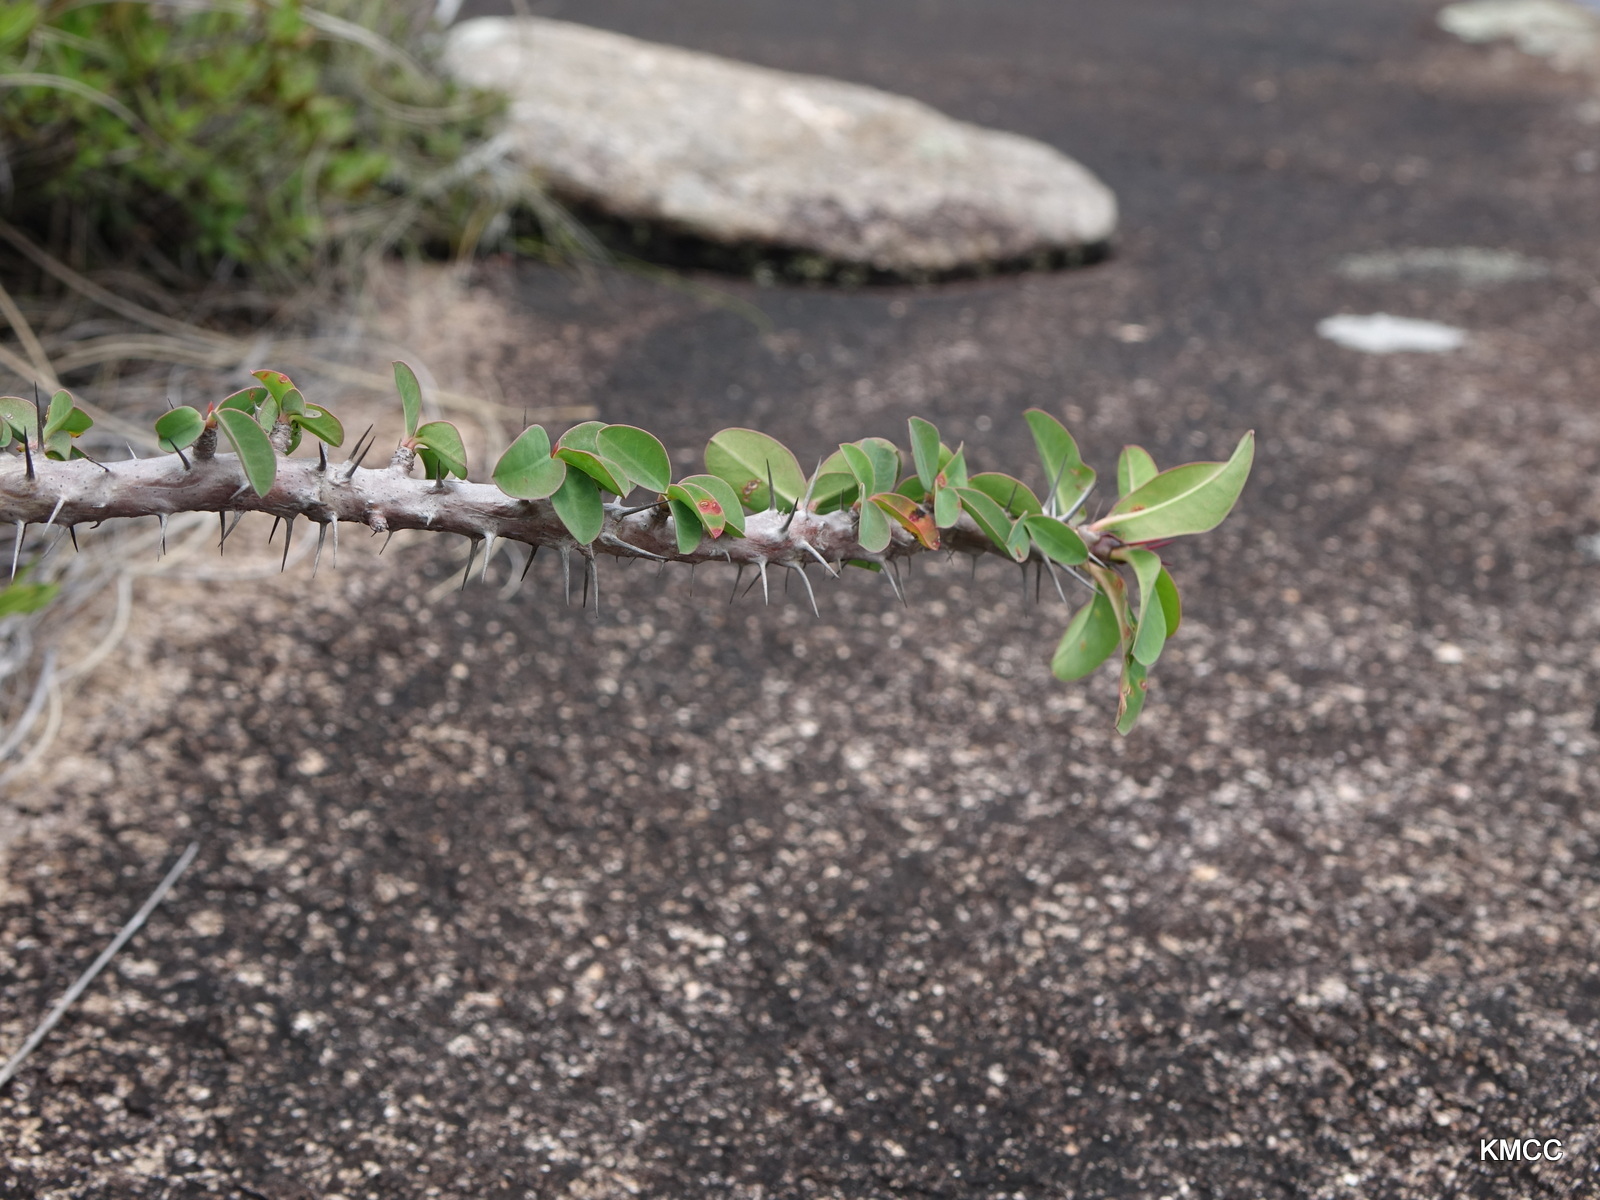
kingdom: Plantae
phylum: Tracheophyta
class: Magnoliopsida
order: Malpighiales
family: Euphorbiaceae
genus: Euphorbia
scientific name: Euphorbia milii
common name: Christplant
